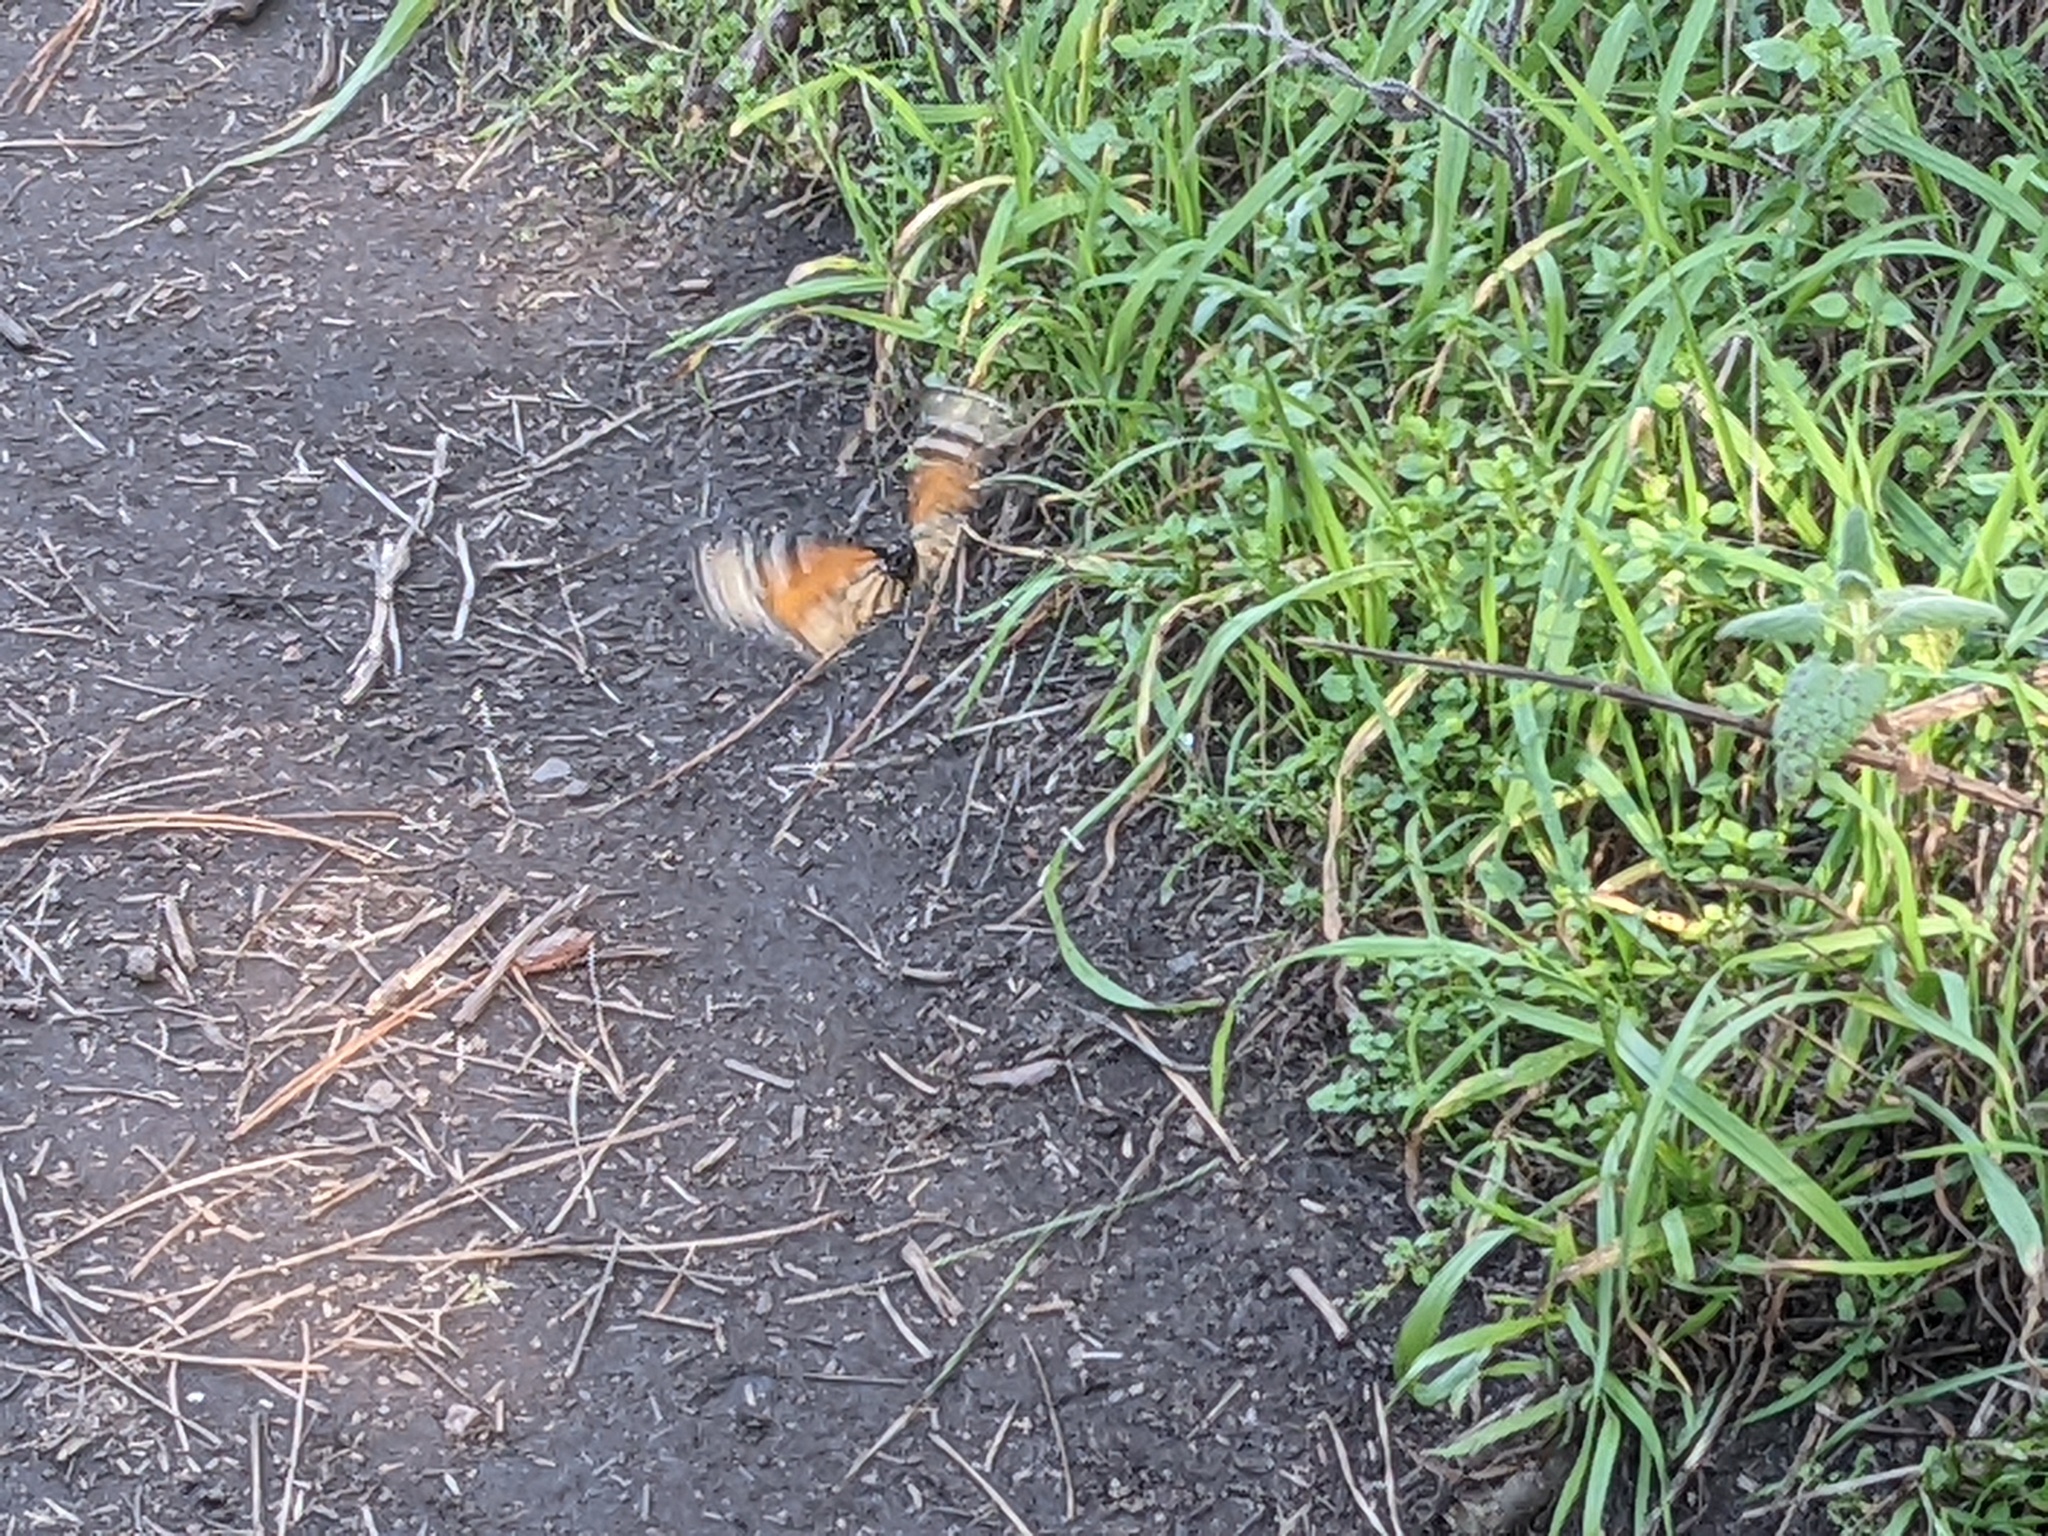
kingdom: Animalia
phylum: Arthropoda
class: Insecta
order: Lepidoptera
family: Nymphalidae
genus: Danaus
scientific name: Danaus plexippus
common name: Monarch
